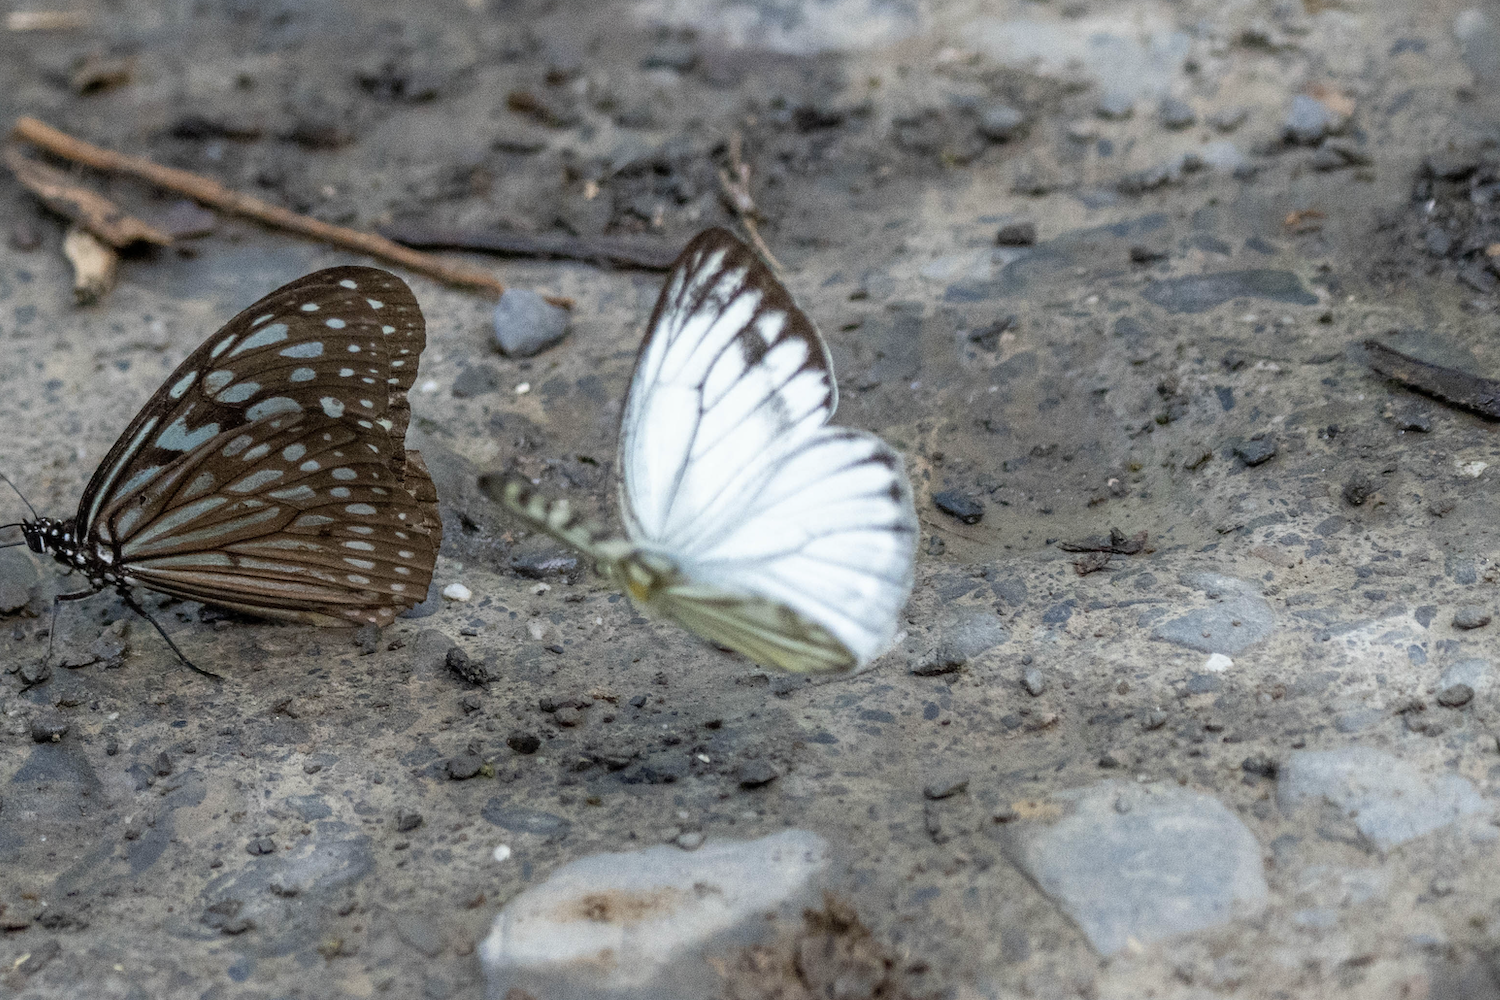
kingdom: Animalia
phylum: Arthropoda
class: Insecta
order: Lepidoptera
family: Pieridae
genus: Cepora
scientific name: Cepora nerissa
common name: Common gull
